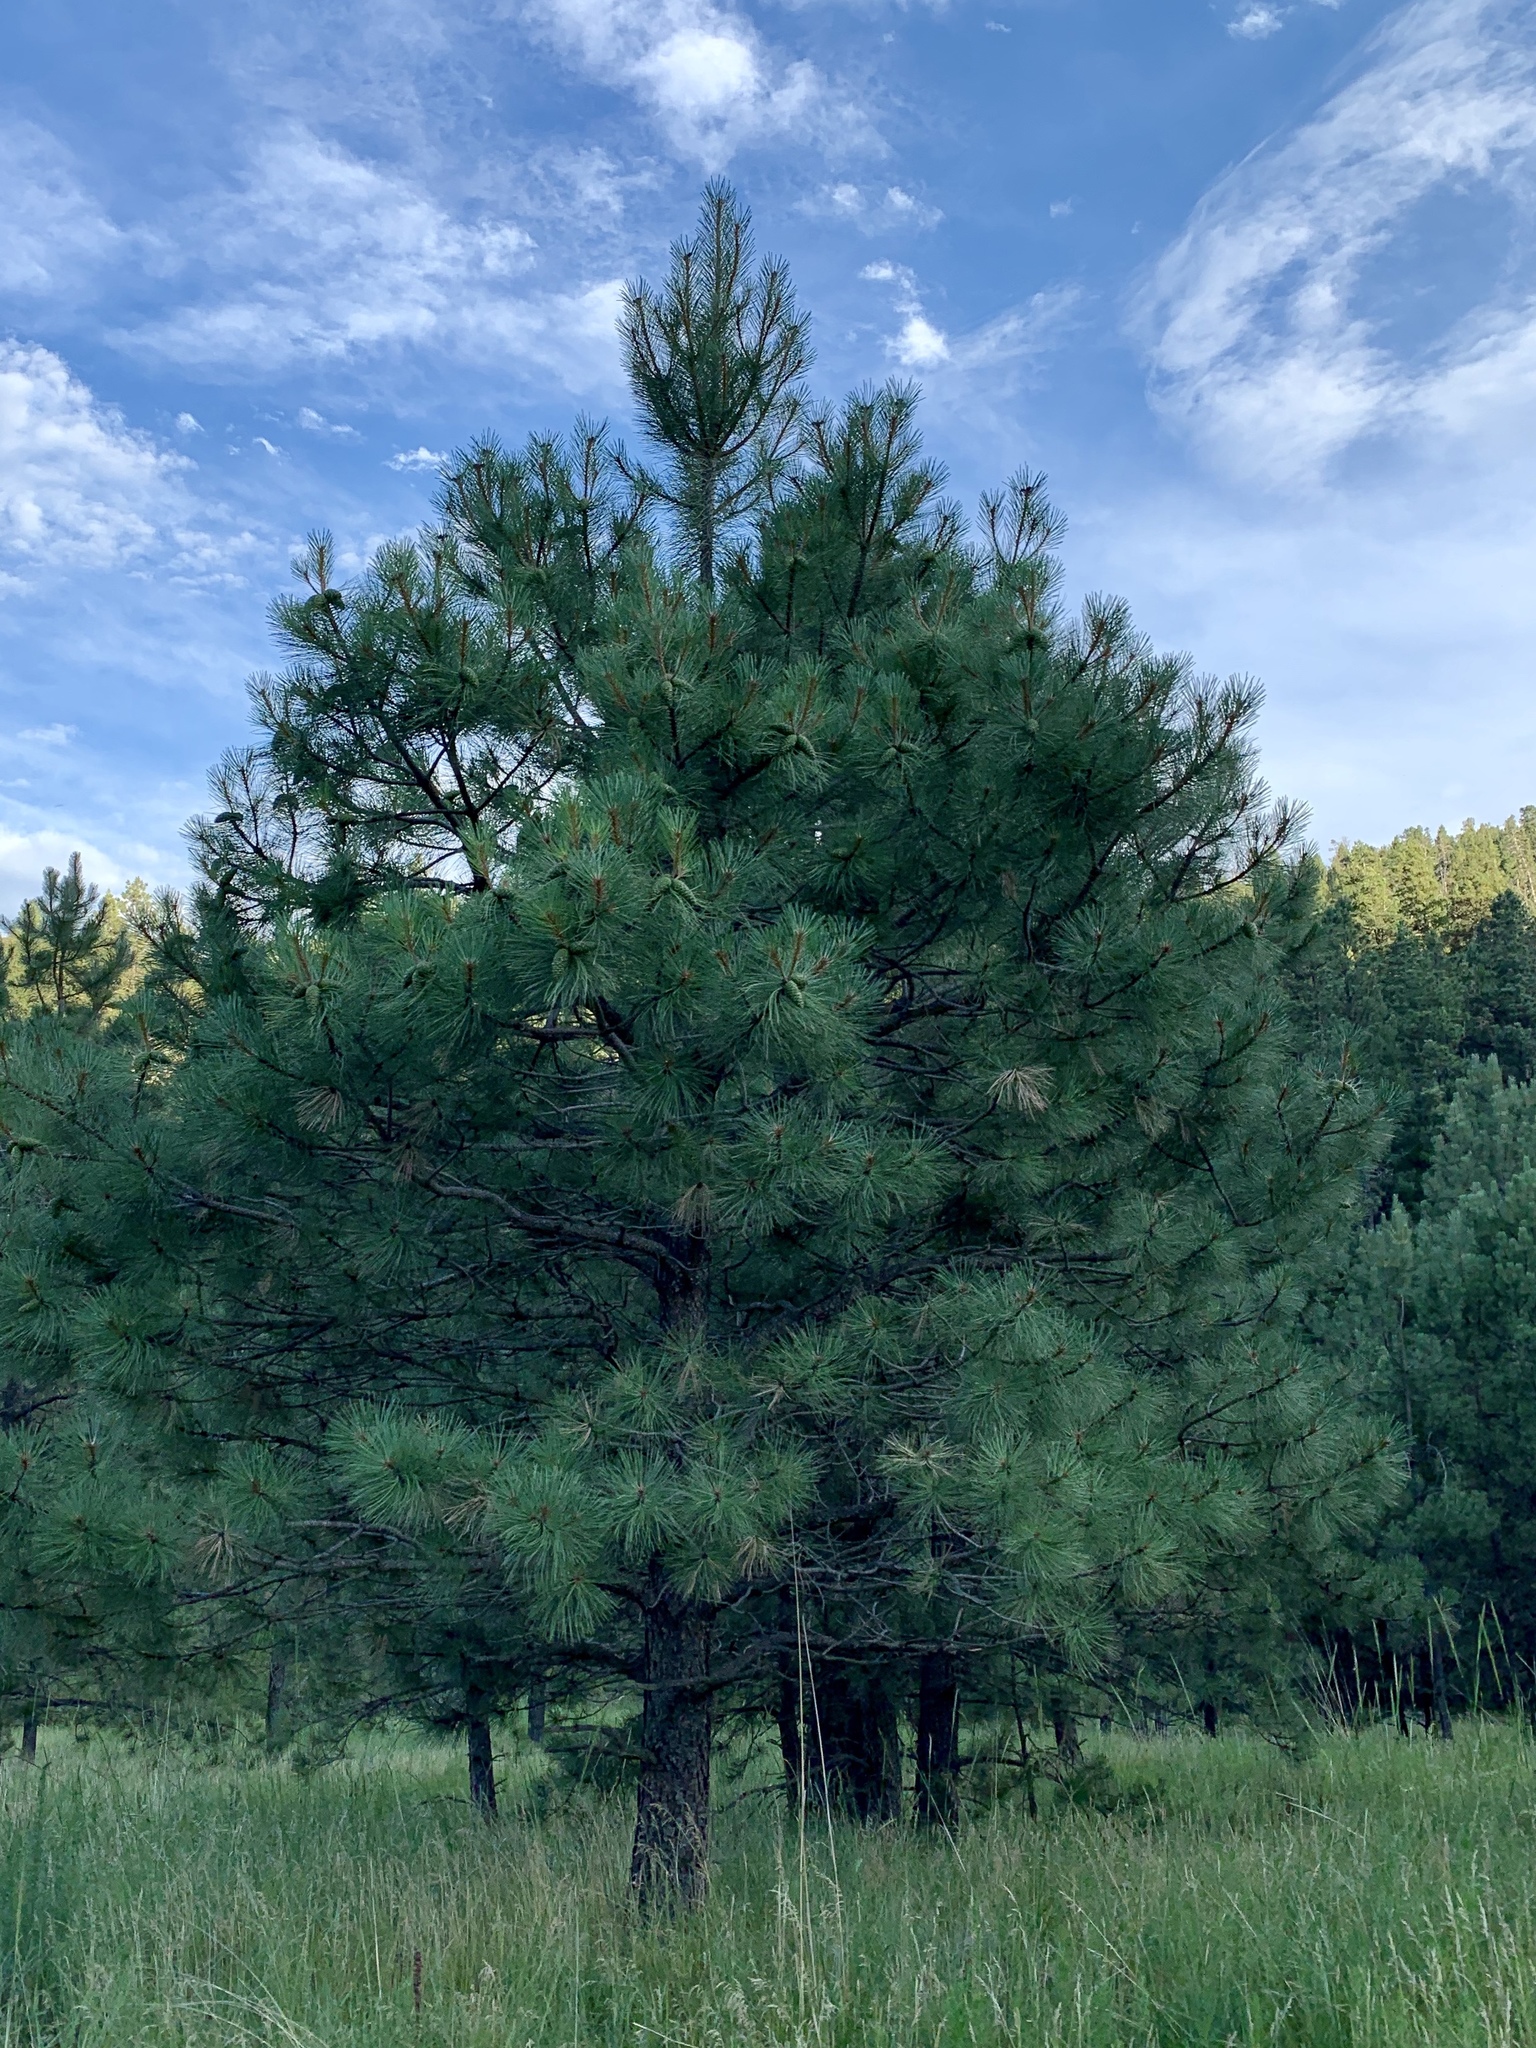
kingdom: Plantae
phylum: Tracheophyta
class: Pinopsida
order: Pinales
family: Pinaceae
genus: Pinus
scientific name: Pinus ponderosa
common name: Western yellow-pine
